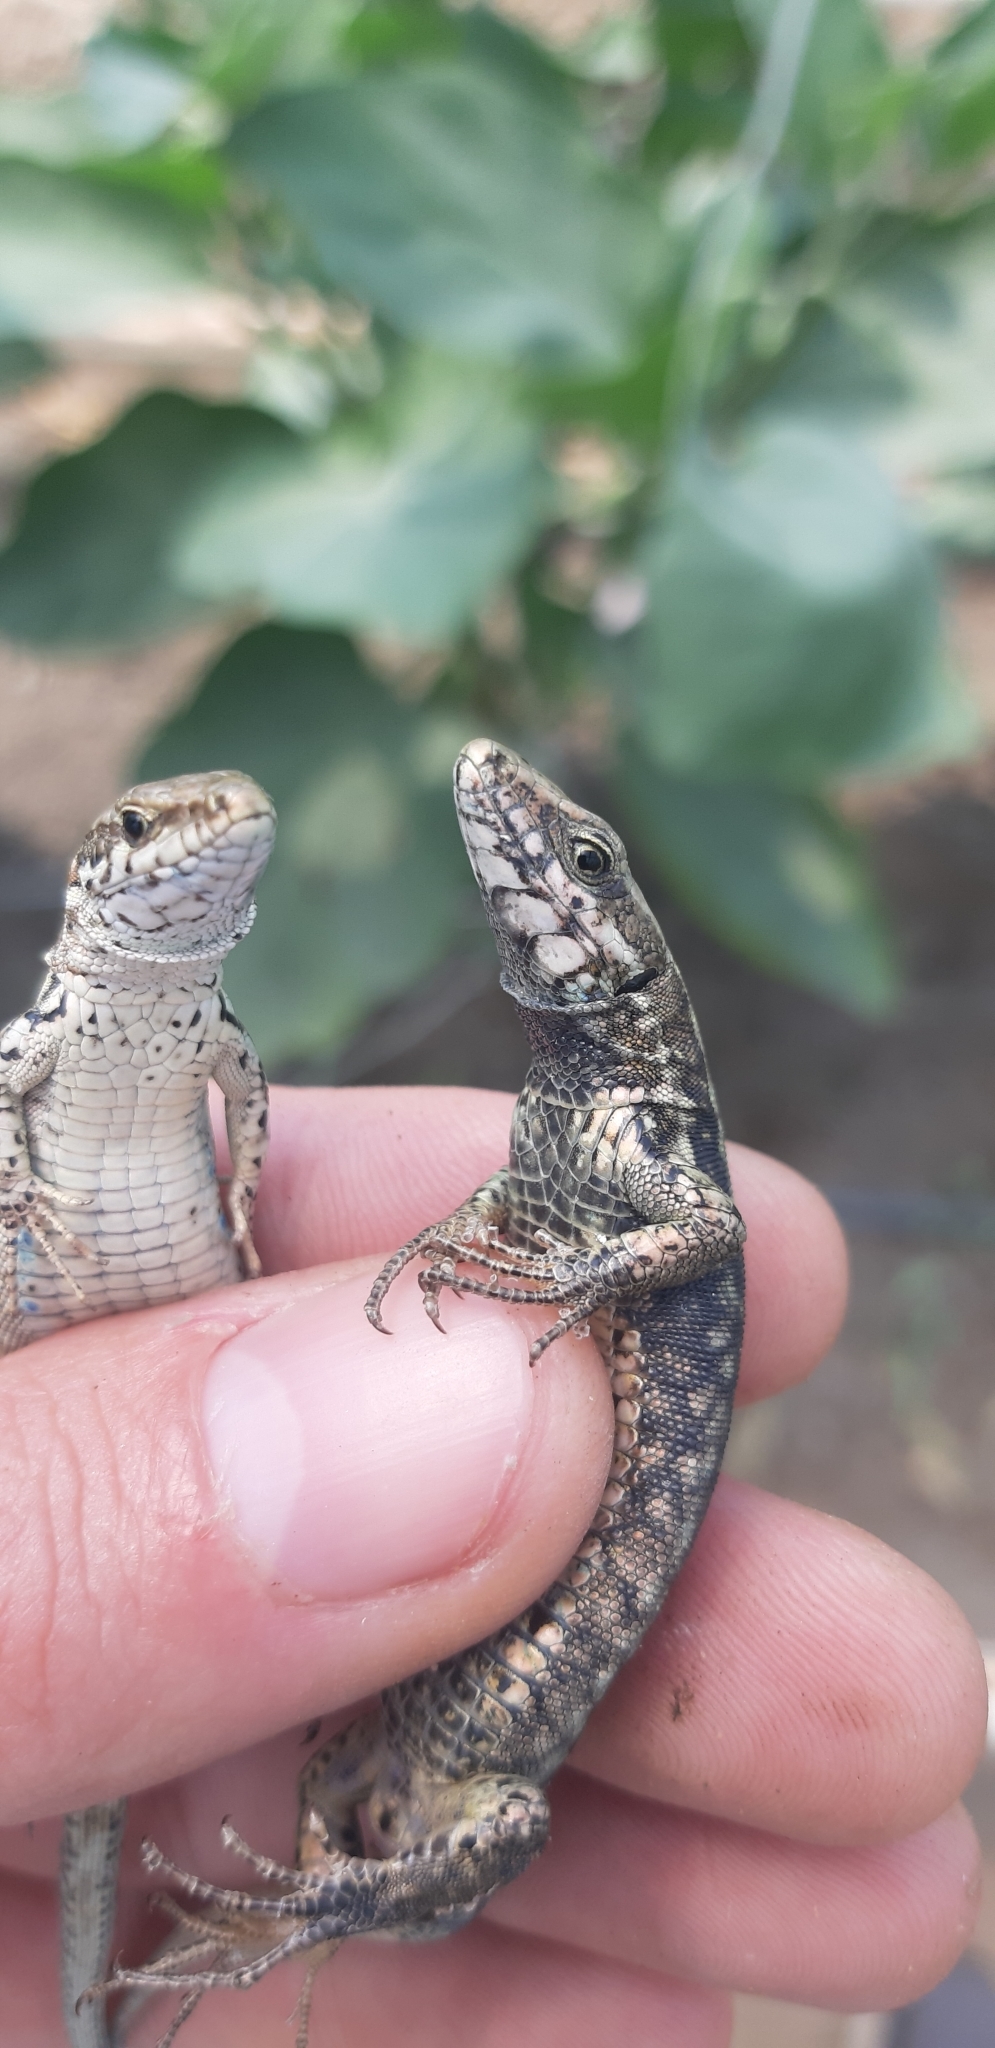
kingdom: Animalia
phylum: Chordata
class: Squamata
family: Lacertidae
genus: Podarcis
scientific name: Podarcis muralis
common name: Common wall lizard
